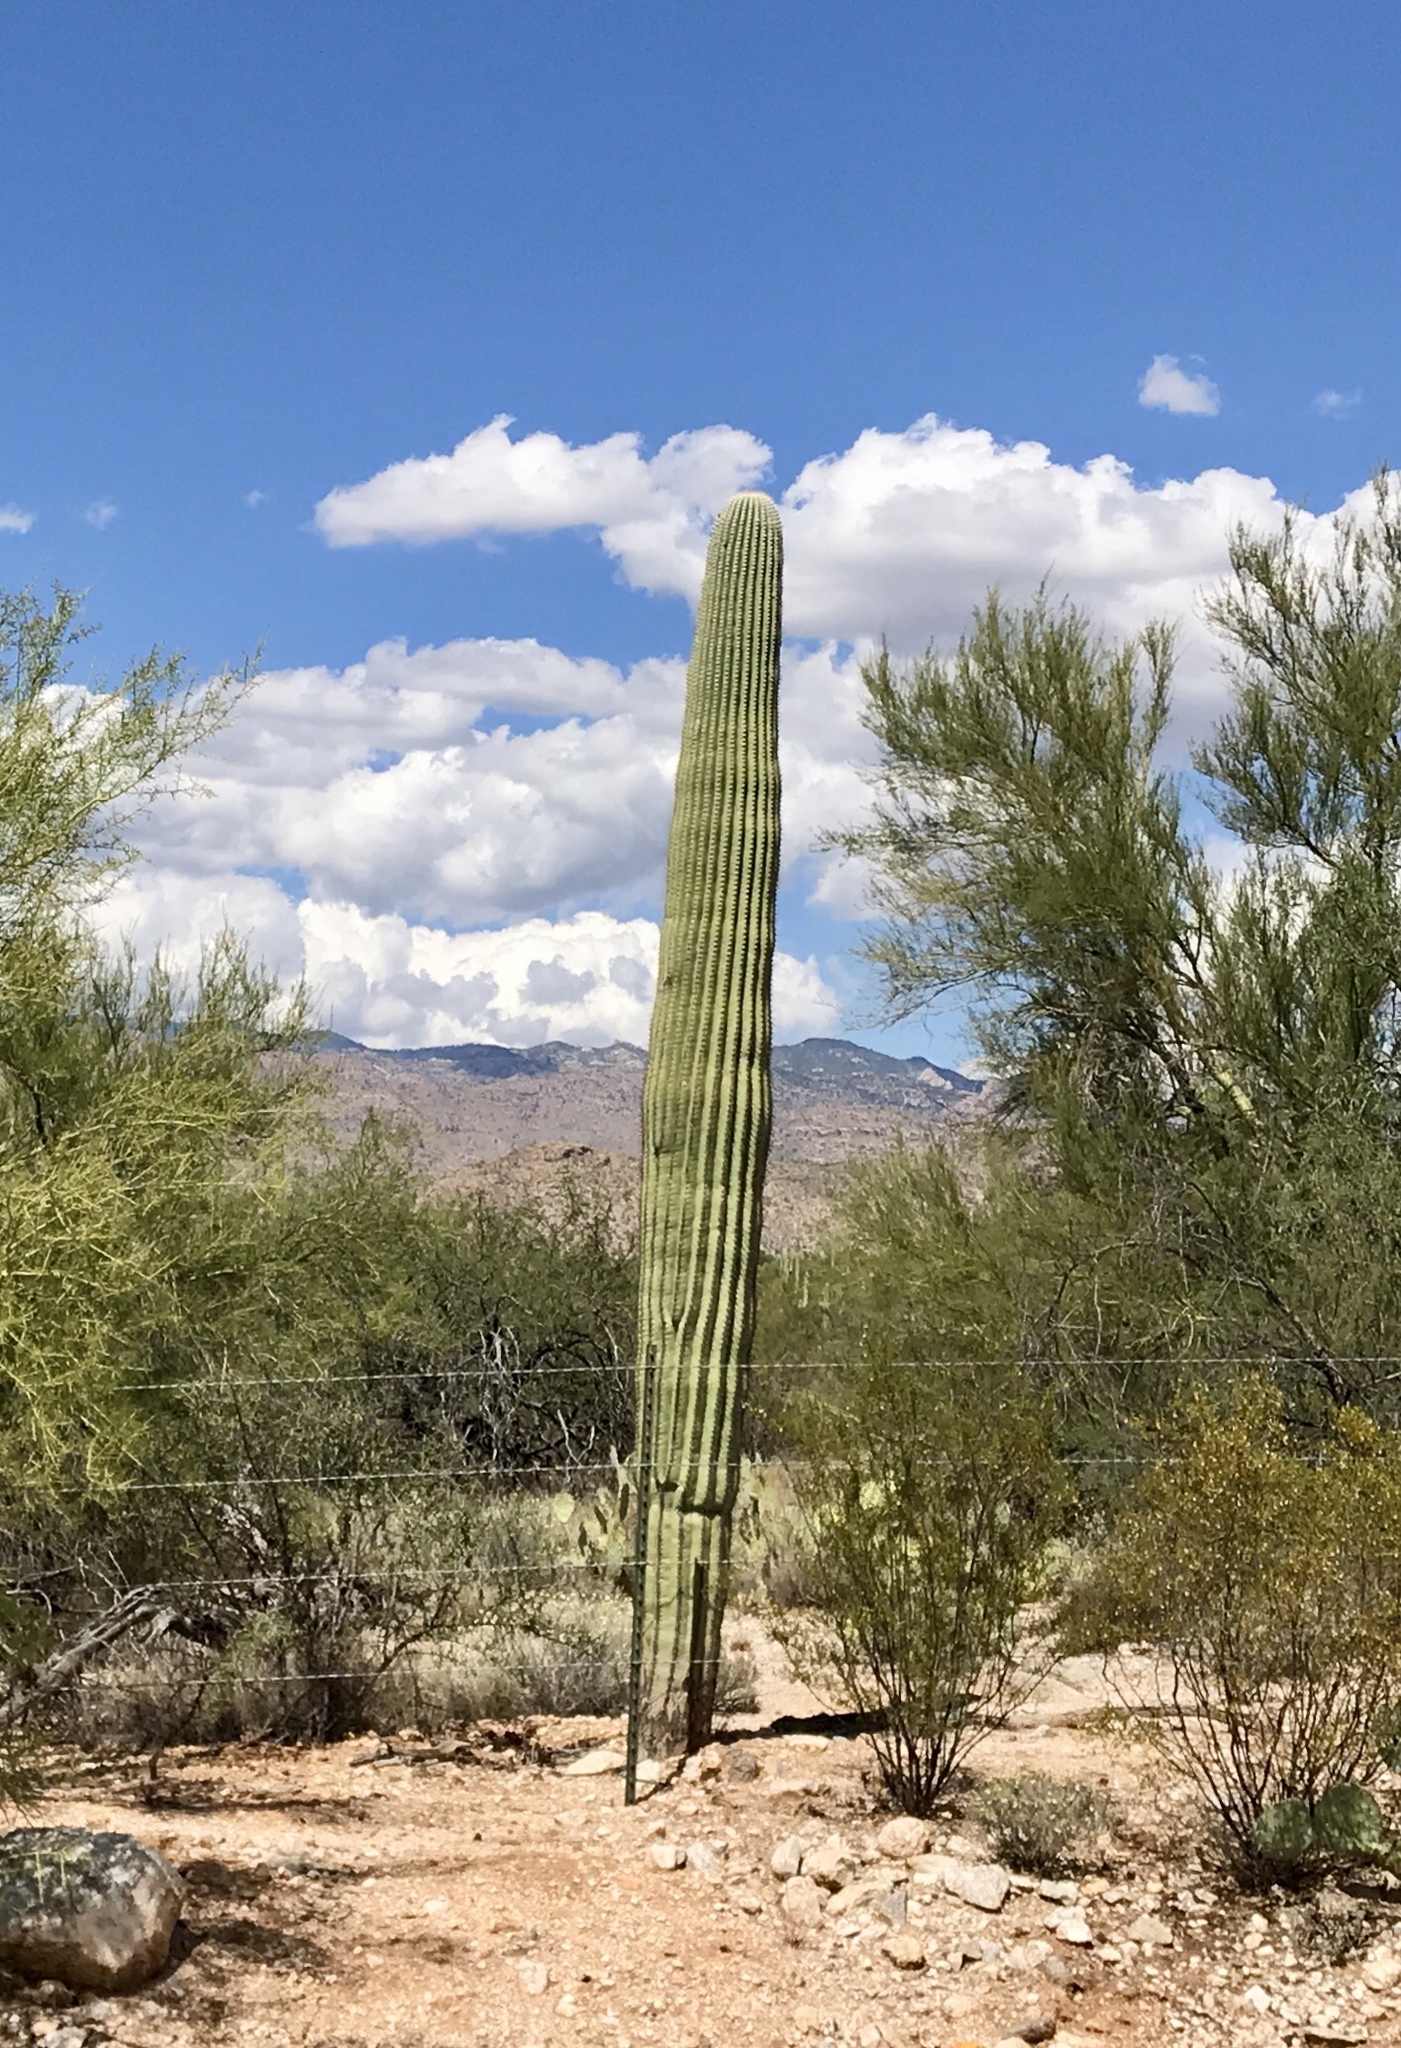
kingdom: Plantae
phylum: Tracheophyta
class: Magnoliopsida
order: Caryophyllales
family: Cactaceae
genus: Carnegiea
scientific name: Carnegiea gigantea
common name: Saguaro
